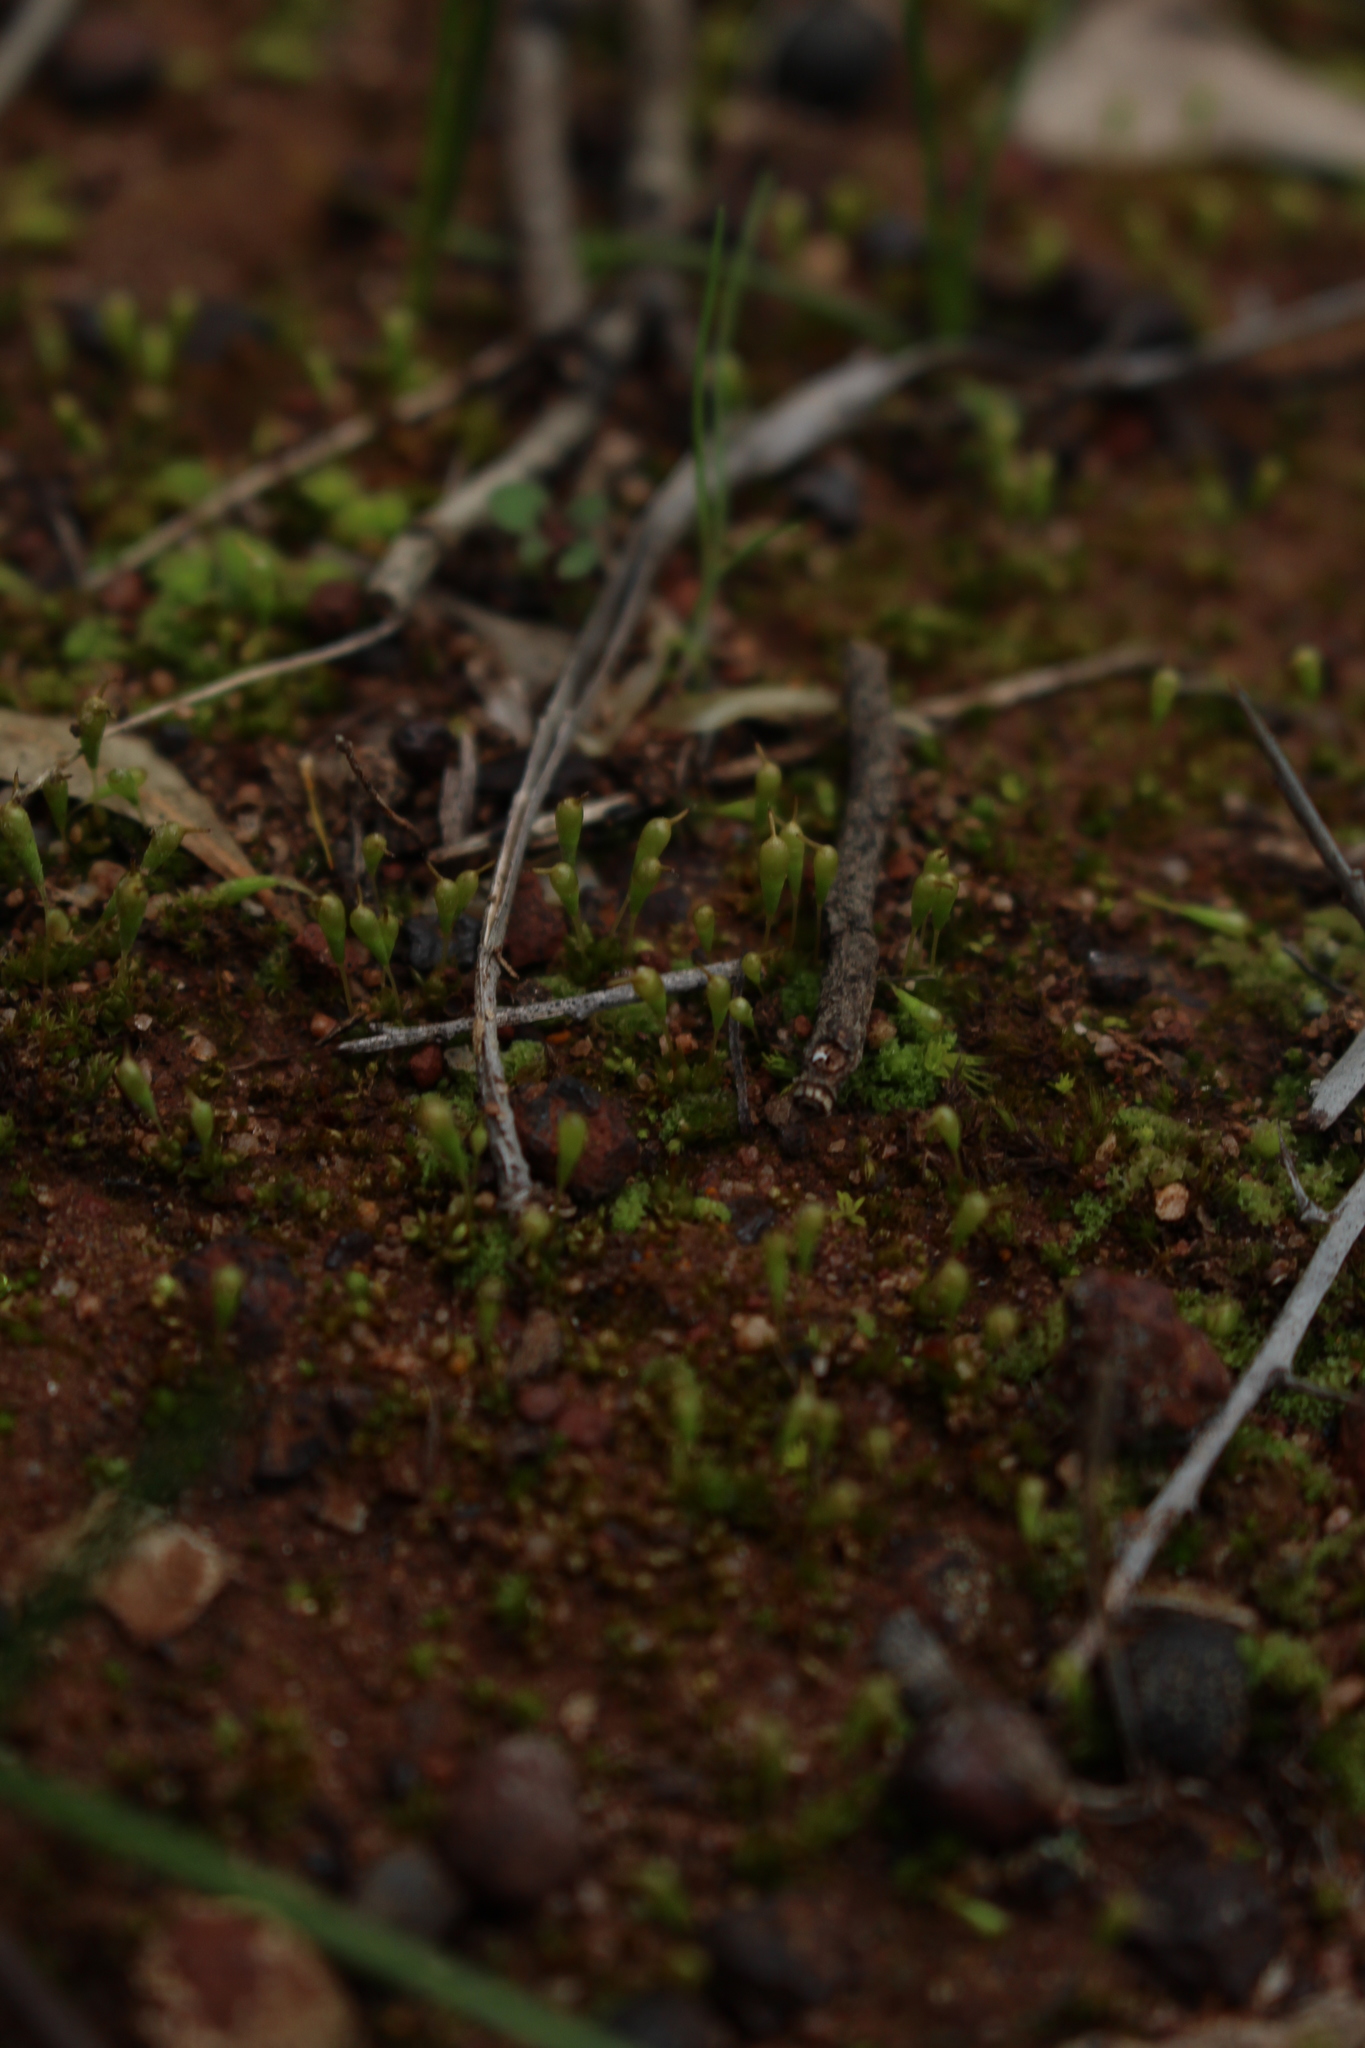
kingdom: Plantae
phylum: Bryophyta
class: Bryopsida
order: Funariales
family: Funariaceae
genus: Entosthodon
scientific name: Entosthodon apophysatus
